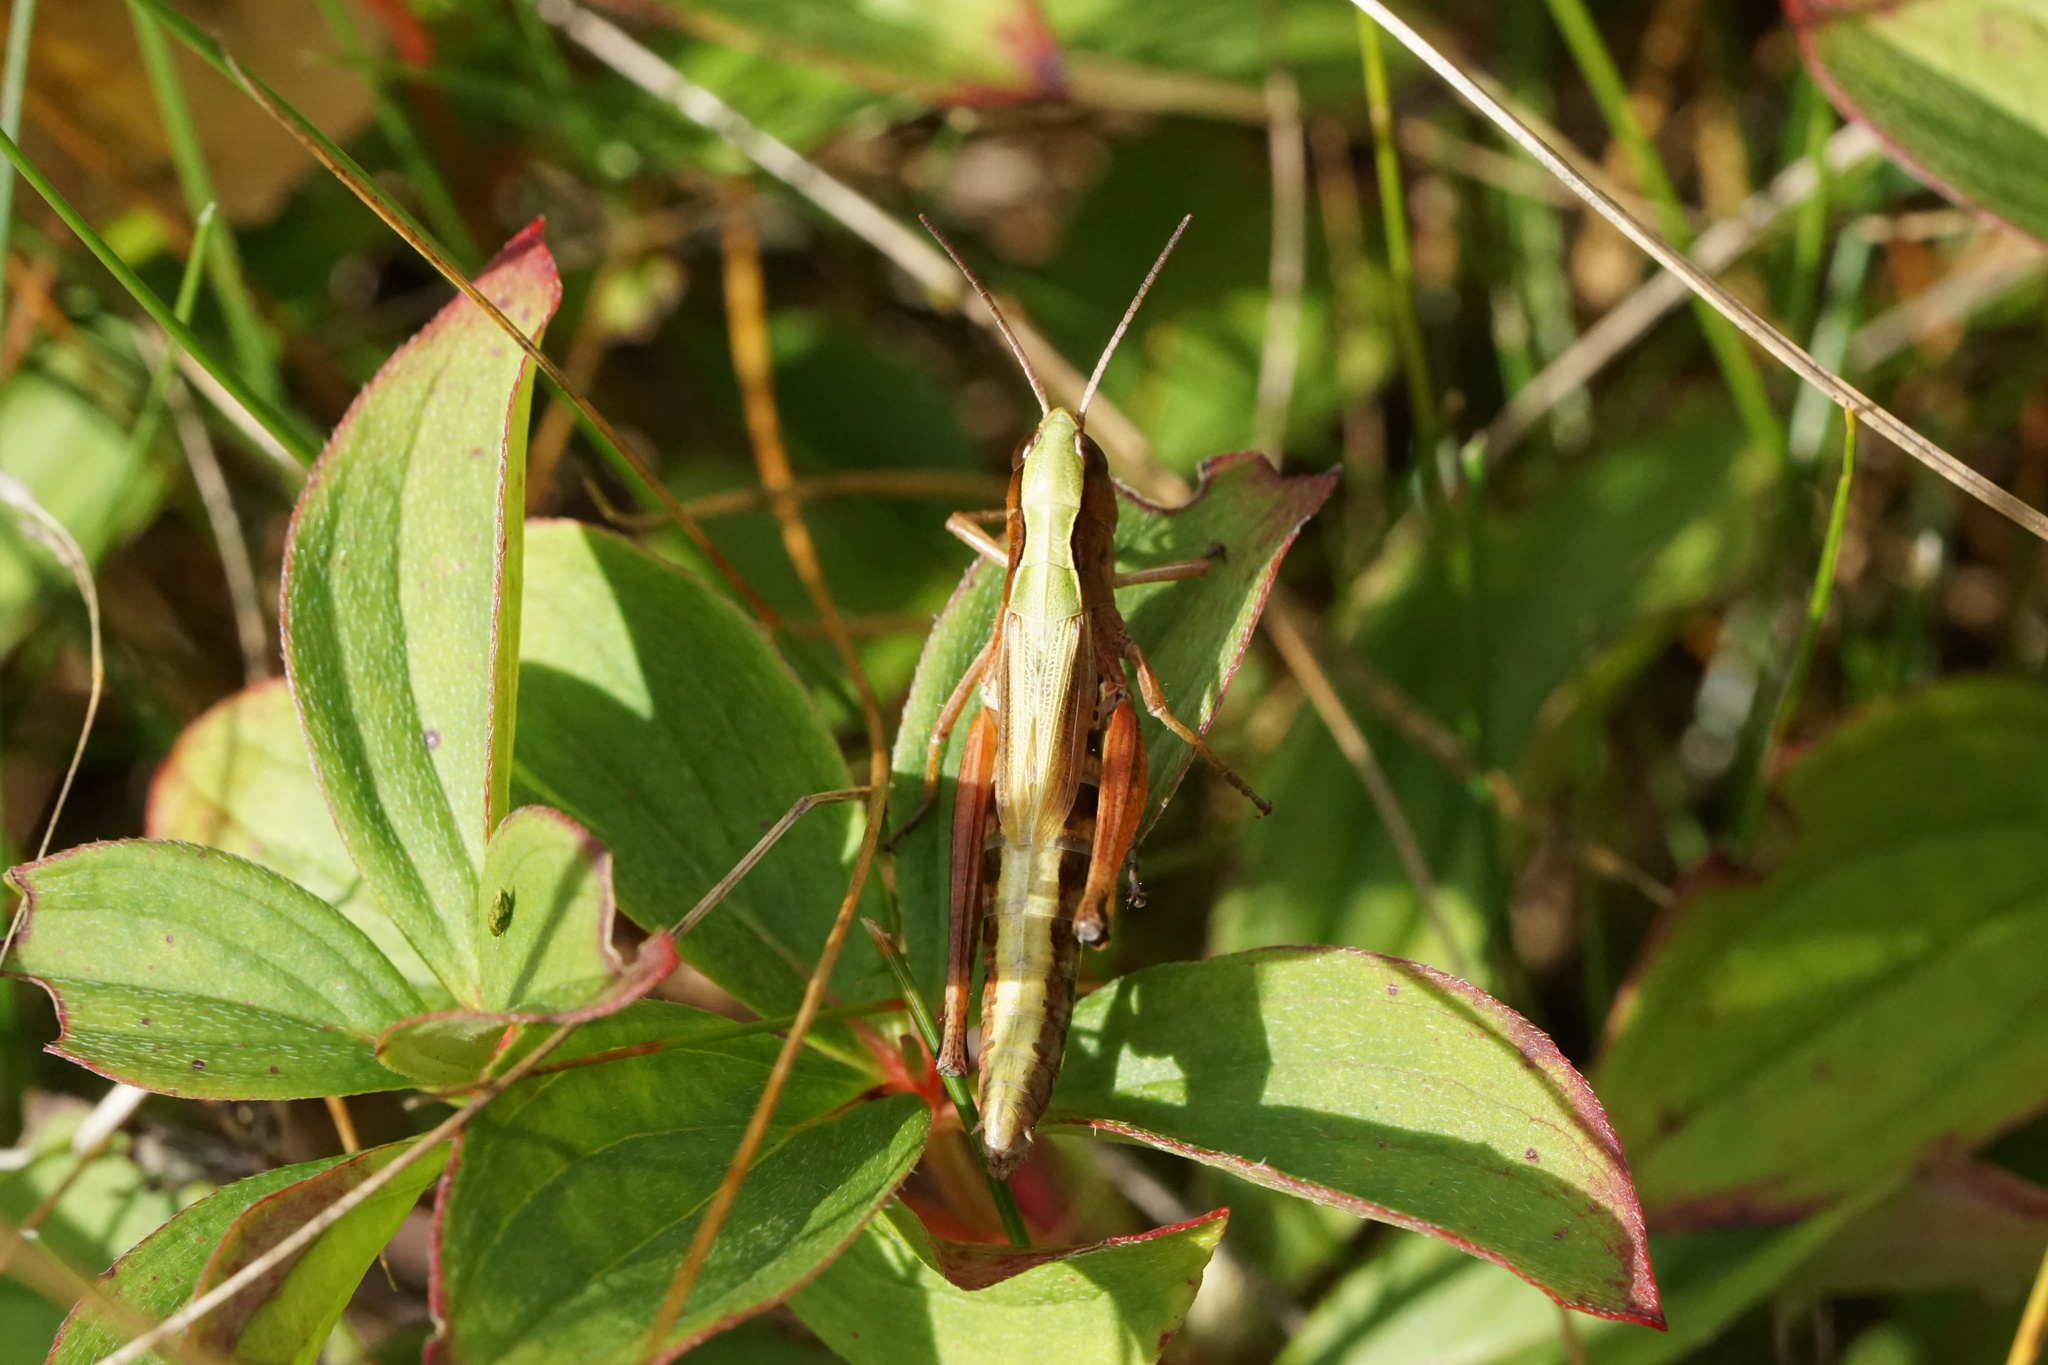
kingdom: Animalia
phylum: Arthropoda
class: Insecta
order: Orthoptera
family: Acrididae
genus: Pseudochorthippus
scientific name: Pseudochorthippus curtipennis
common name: Marsh meadow grasshopper
